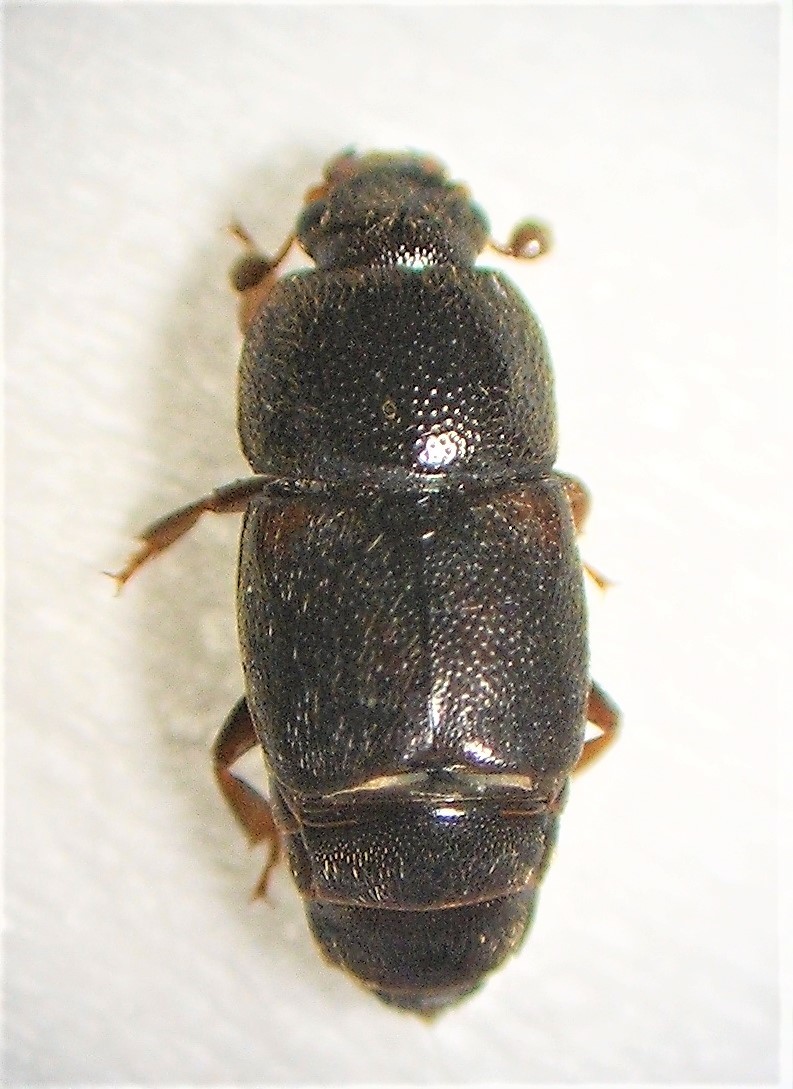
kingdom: Animalia
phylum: Arthropoda
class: Insecta
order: Coleoptera
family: Nitidulidae
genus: Urophorus
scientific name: Urophorus humeralis
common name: Sap beetle
